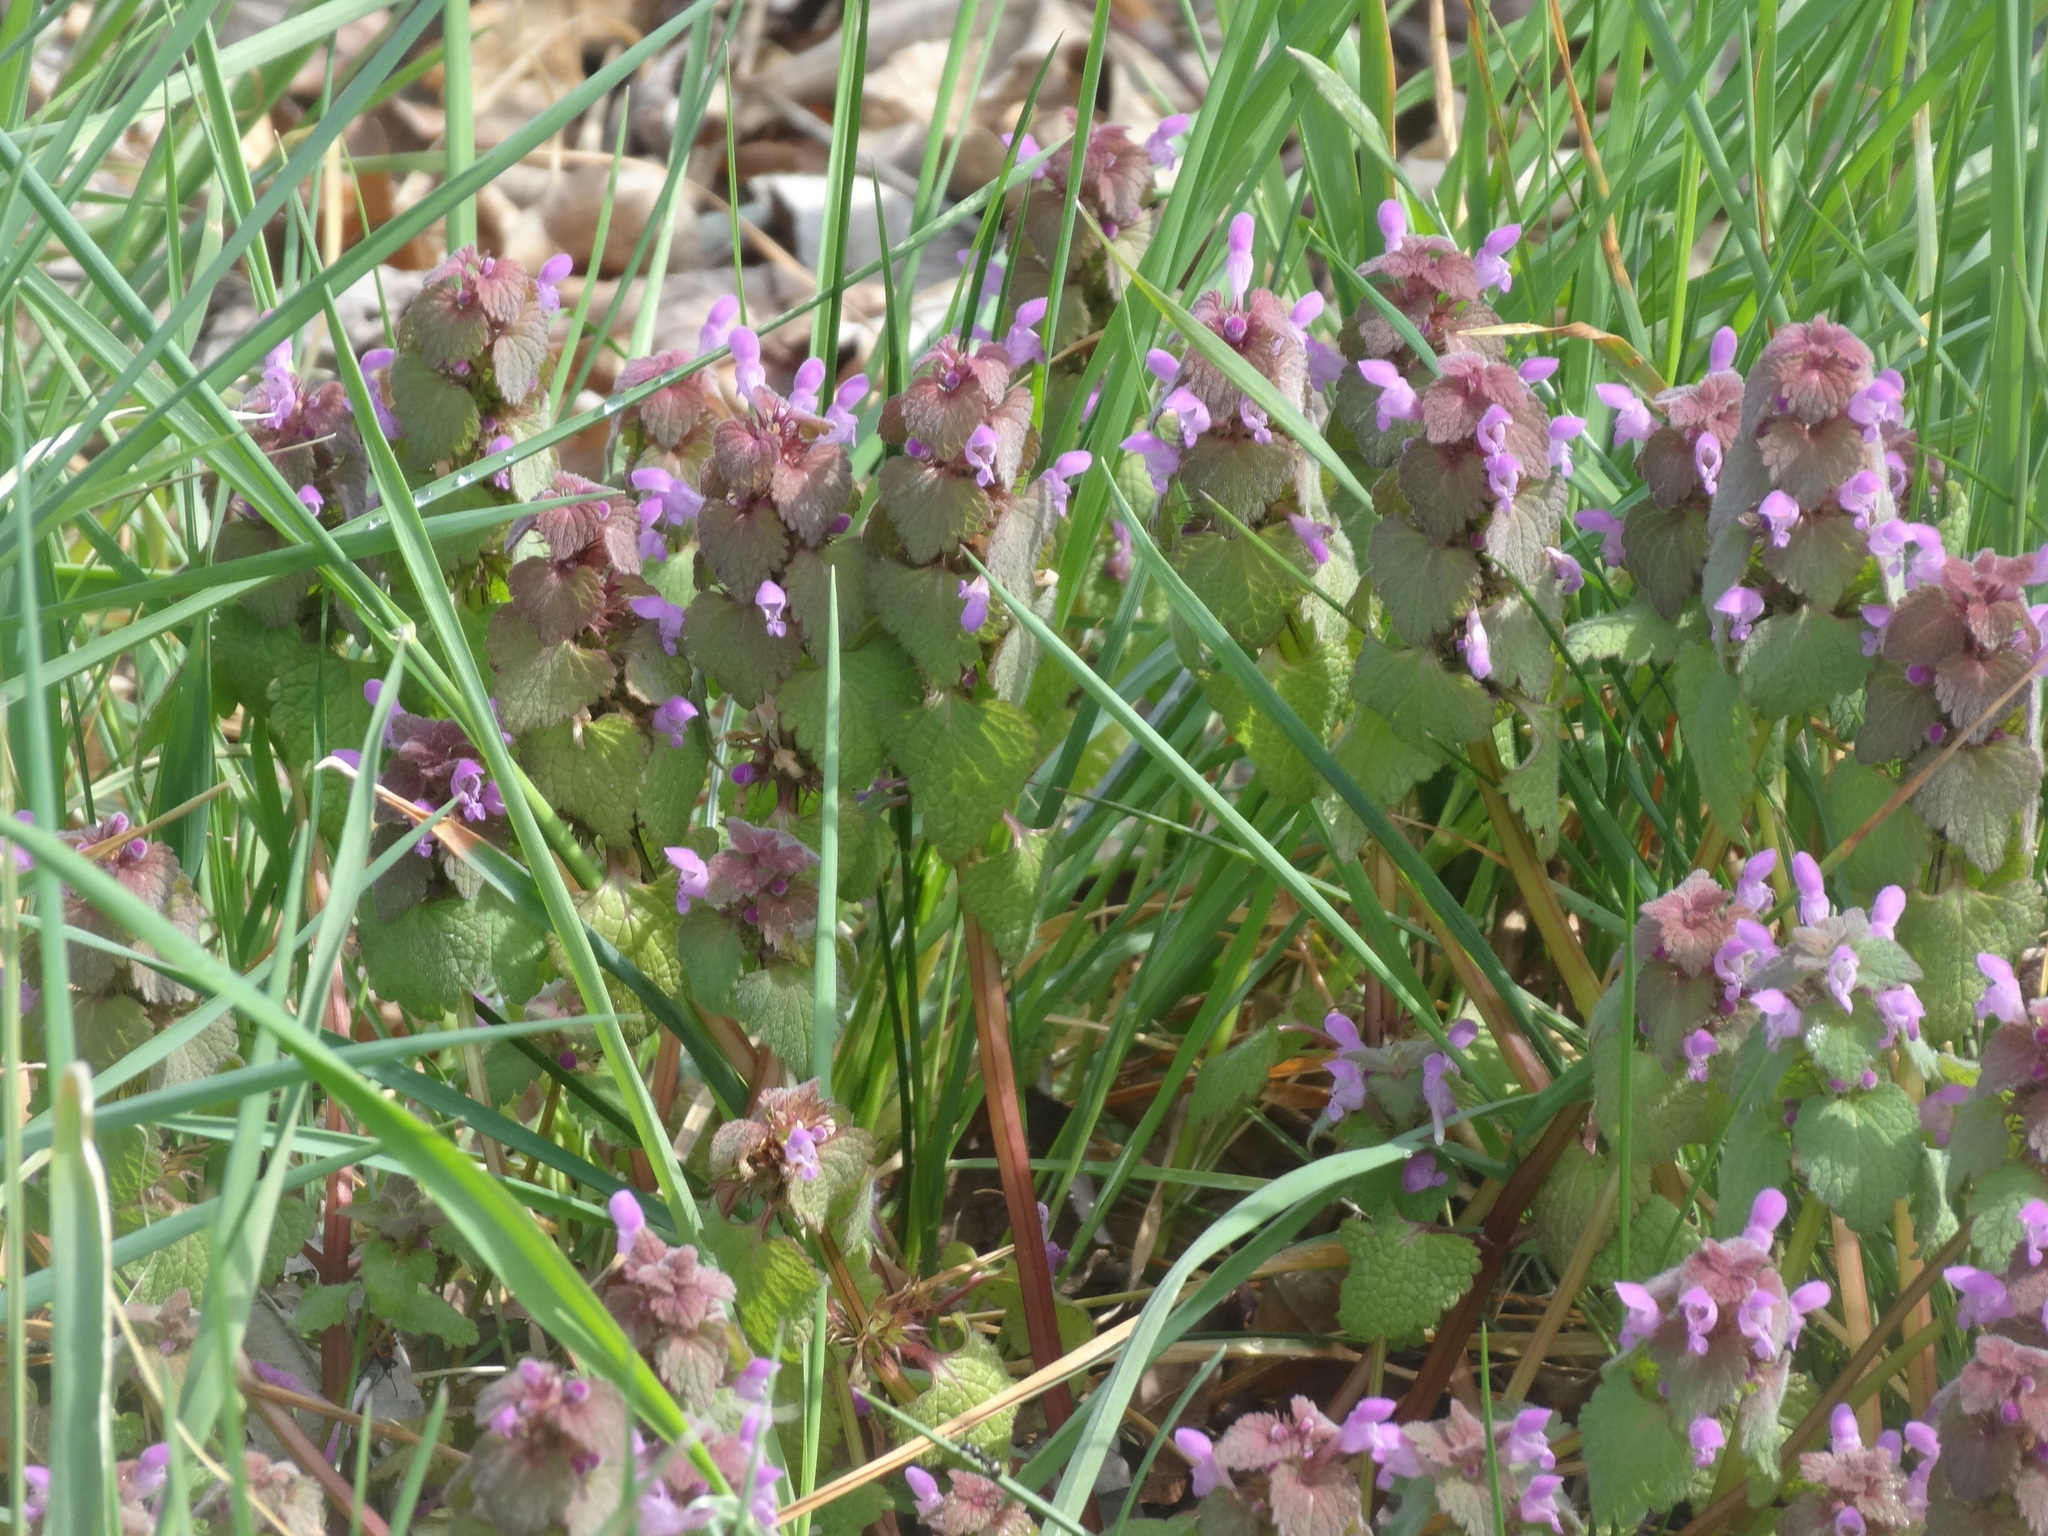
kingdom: Plantae
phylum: Tracheophyta
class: Magnoliopsida
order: Lamiales
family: Lamiaceae
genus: Lamium
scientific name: Lamium purpureum
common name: Red dead-nettle
